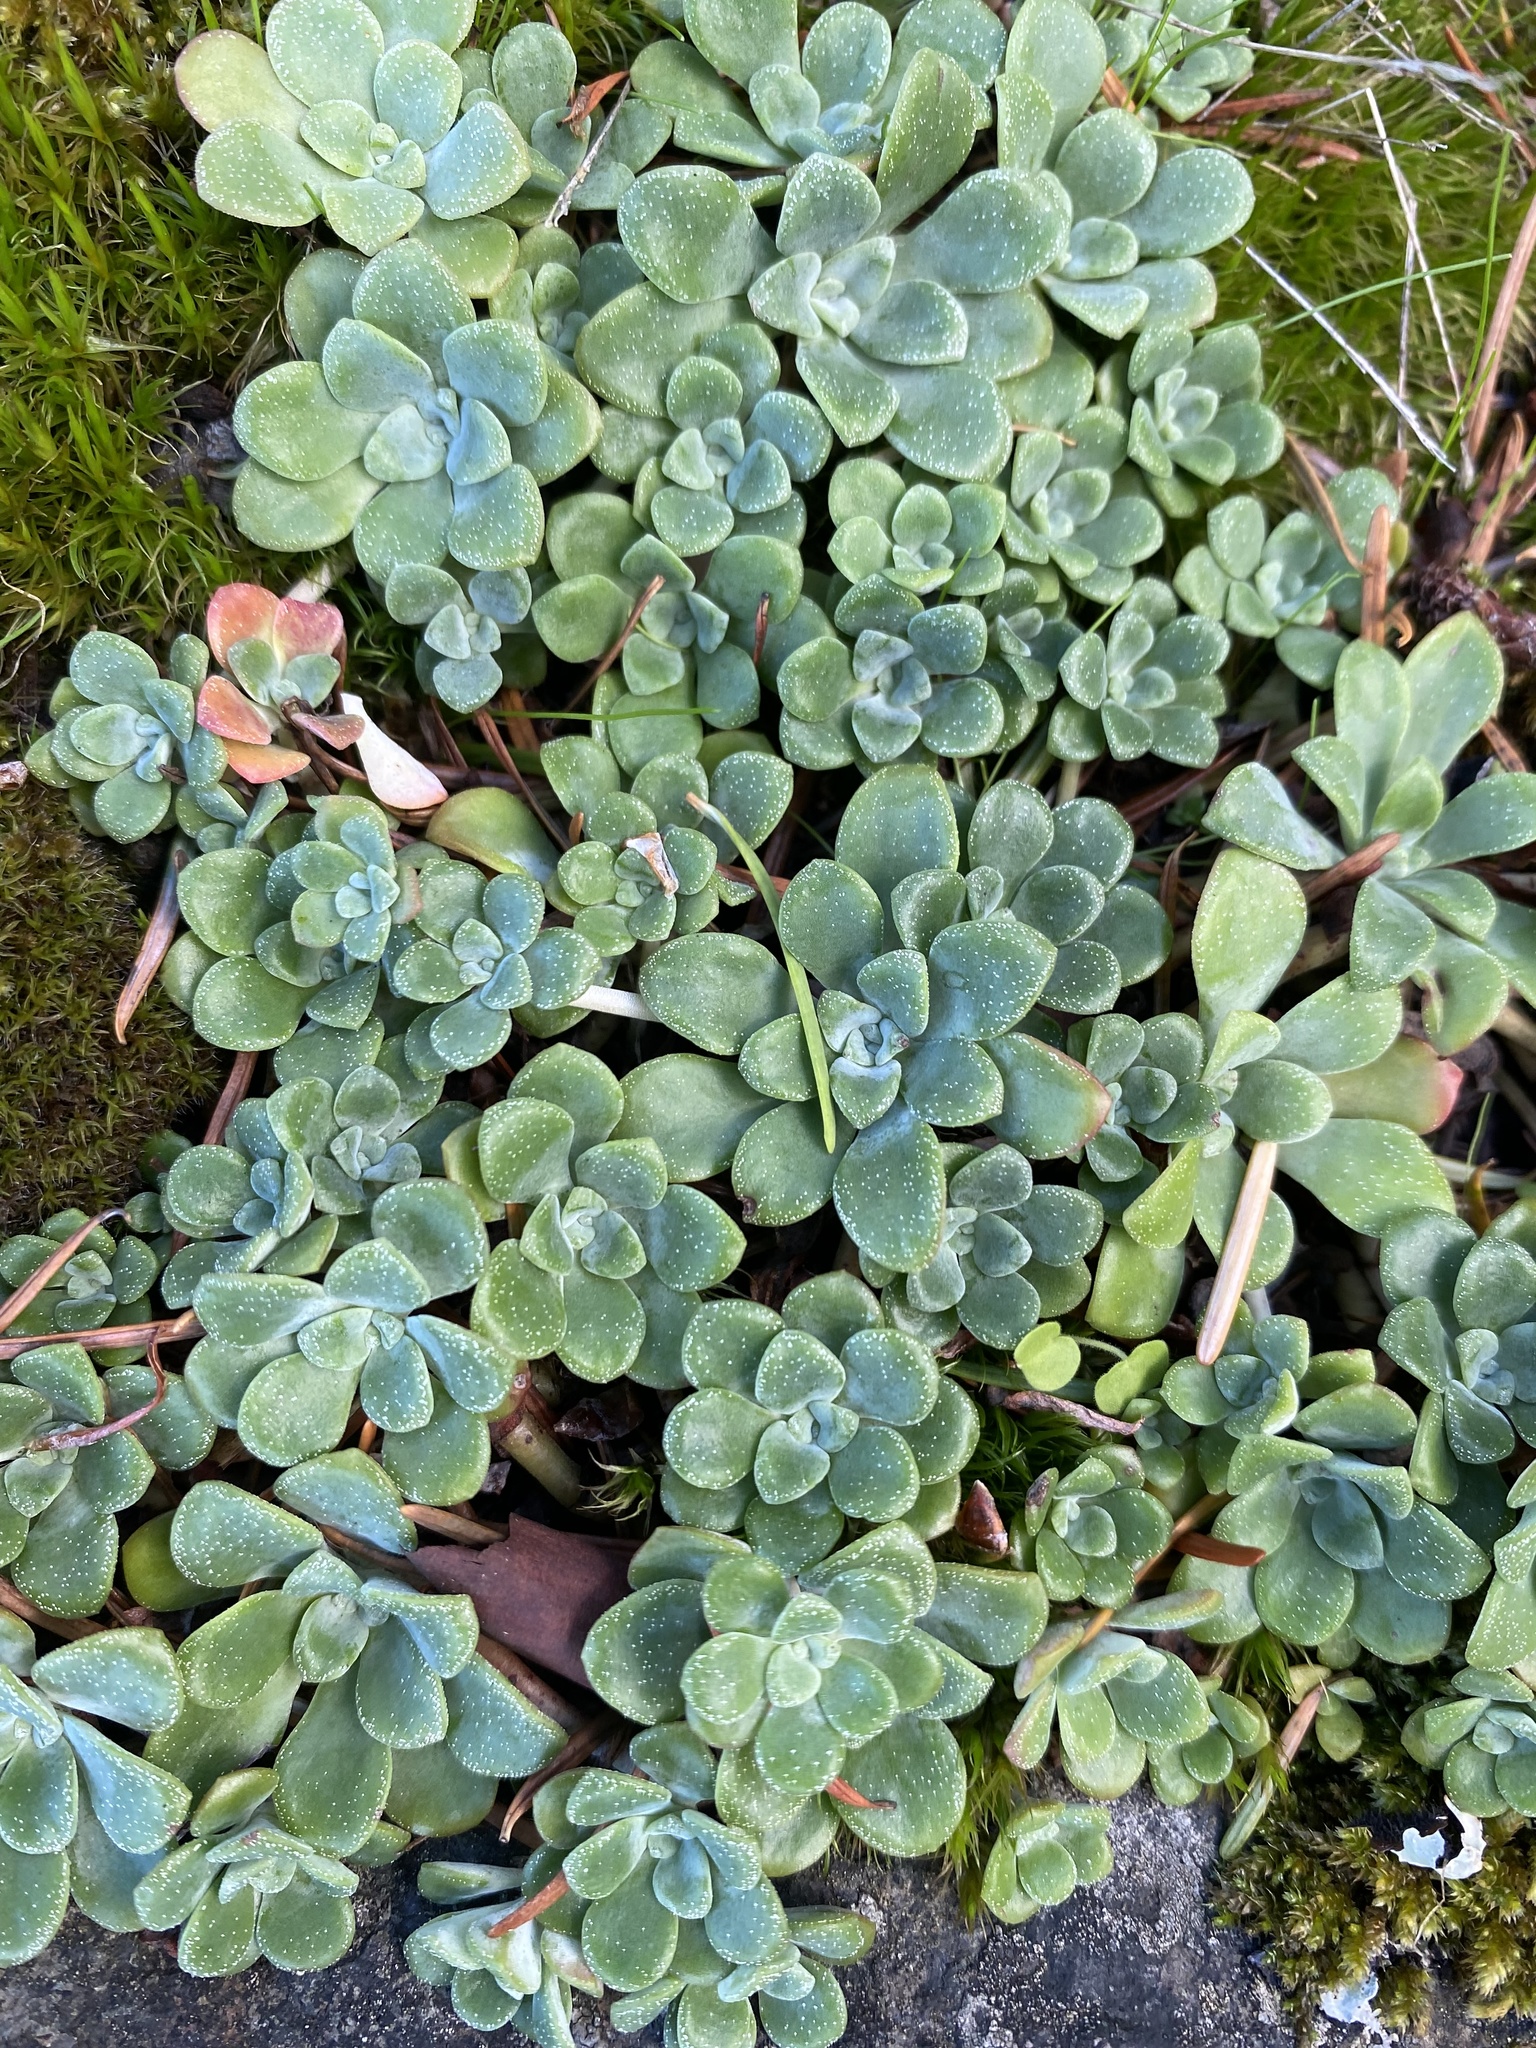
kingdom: Plantae
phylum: Tracheophyta
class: Magnoliopsida
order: Saxifragales
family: Crassulaceae
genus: Sedum
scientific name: Sedum spathulifolium
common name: Colorado stonecrop
